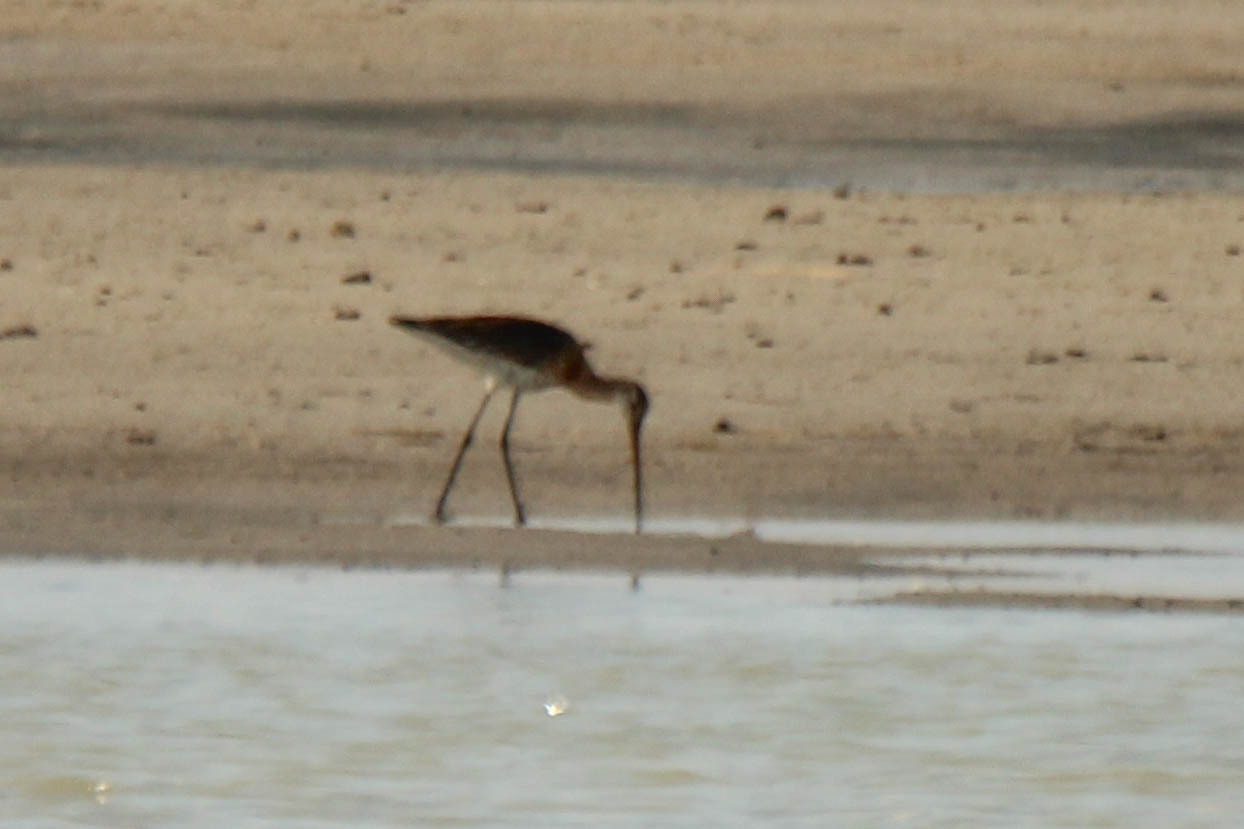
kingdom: Animalia
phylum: Chordata
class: Aves
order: Charadriiformes
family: Scolopacidae
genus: Limosa
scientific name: Limosa limosa
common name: Black-tailed godwit
